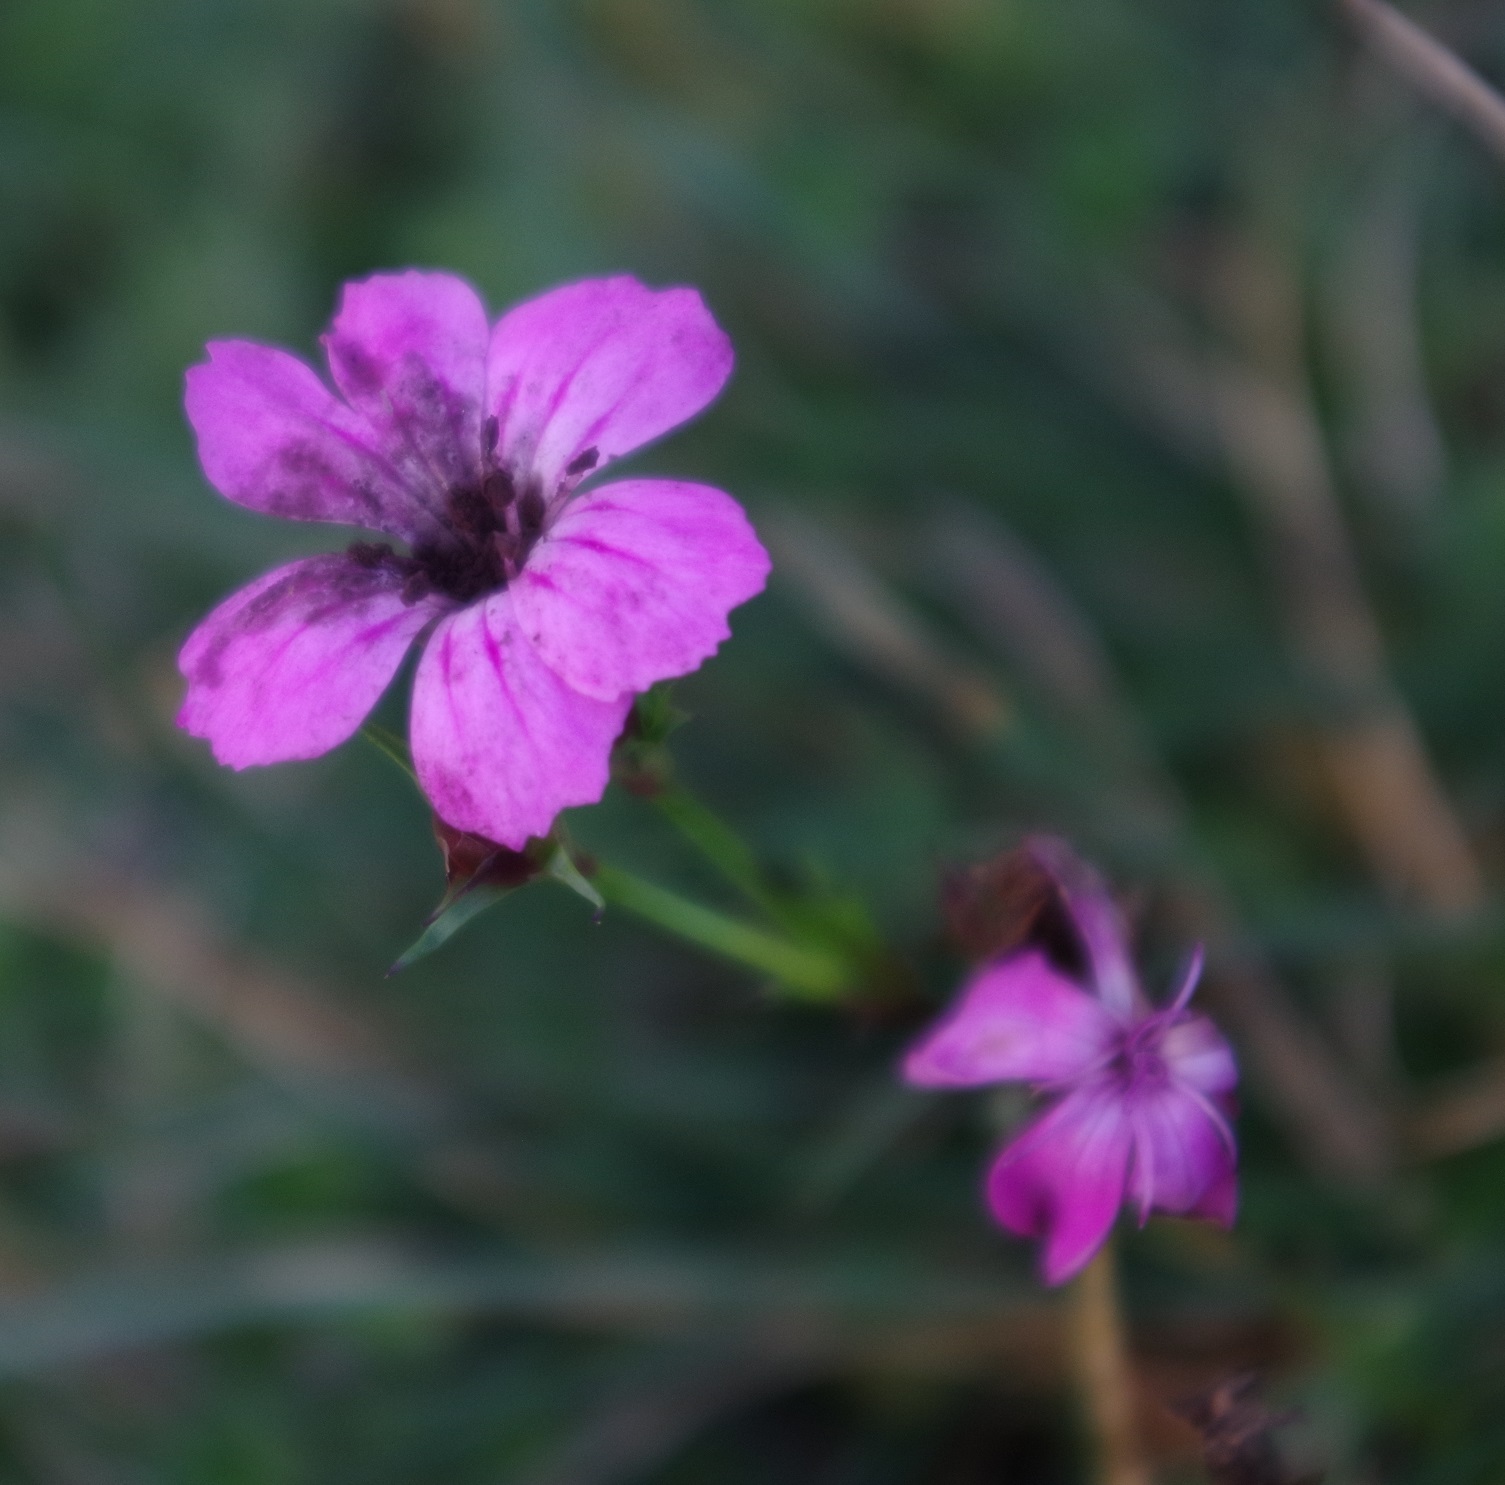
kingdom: Plantae
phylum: Tracheophyta
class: Magnoliopsida
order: Caryophyllales
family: Caryophyllaceae
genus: Dianthus
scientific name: Dianthus carthusianorum
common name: Carthusian pink
